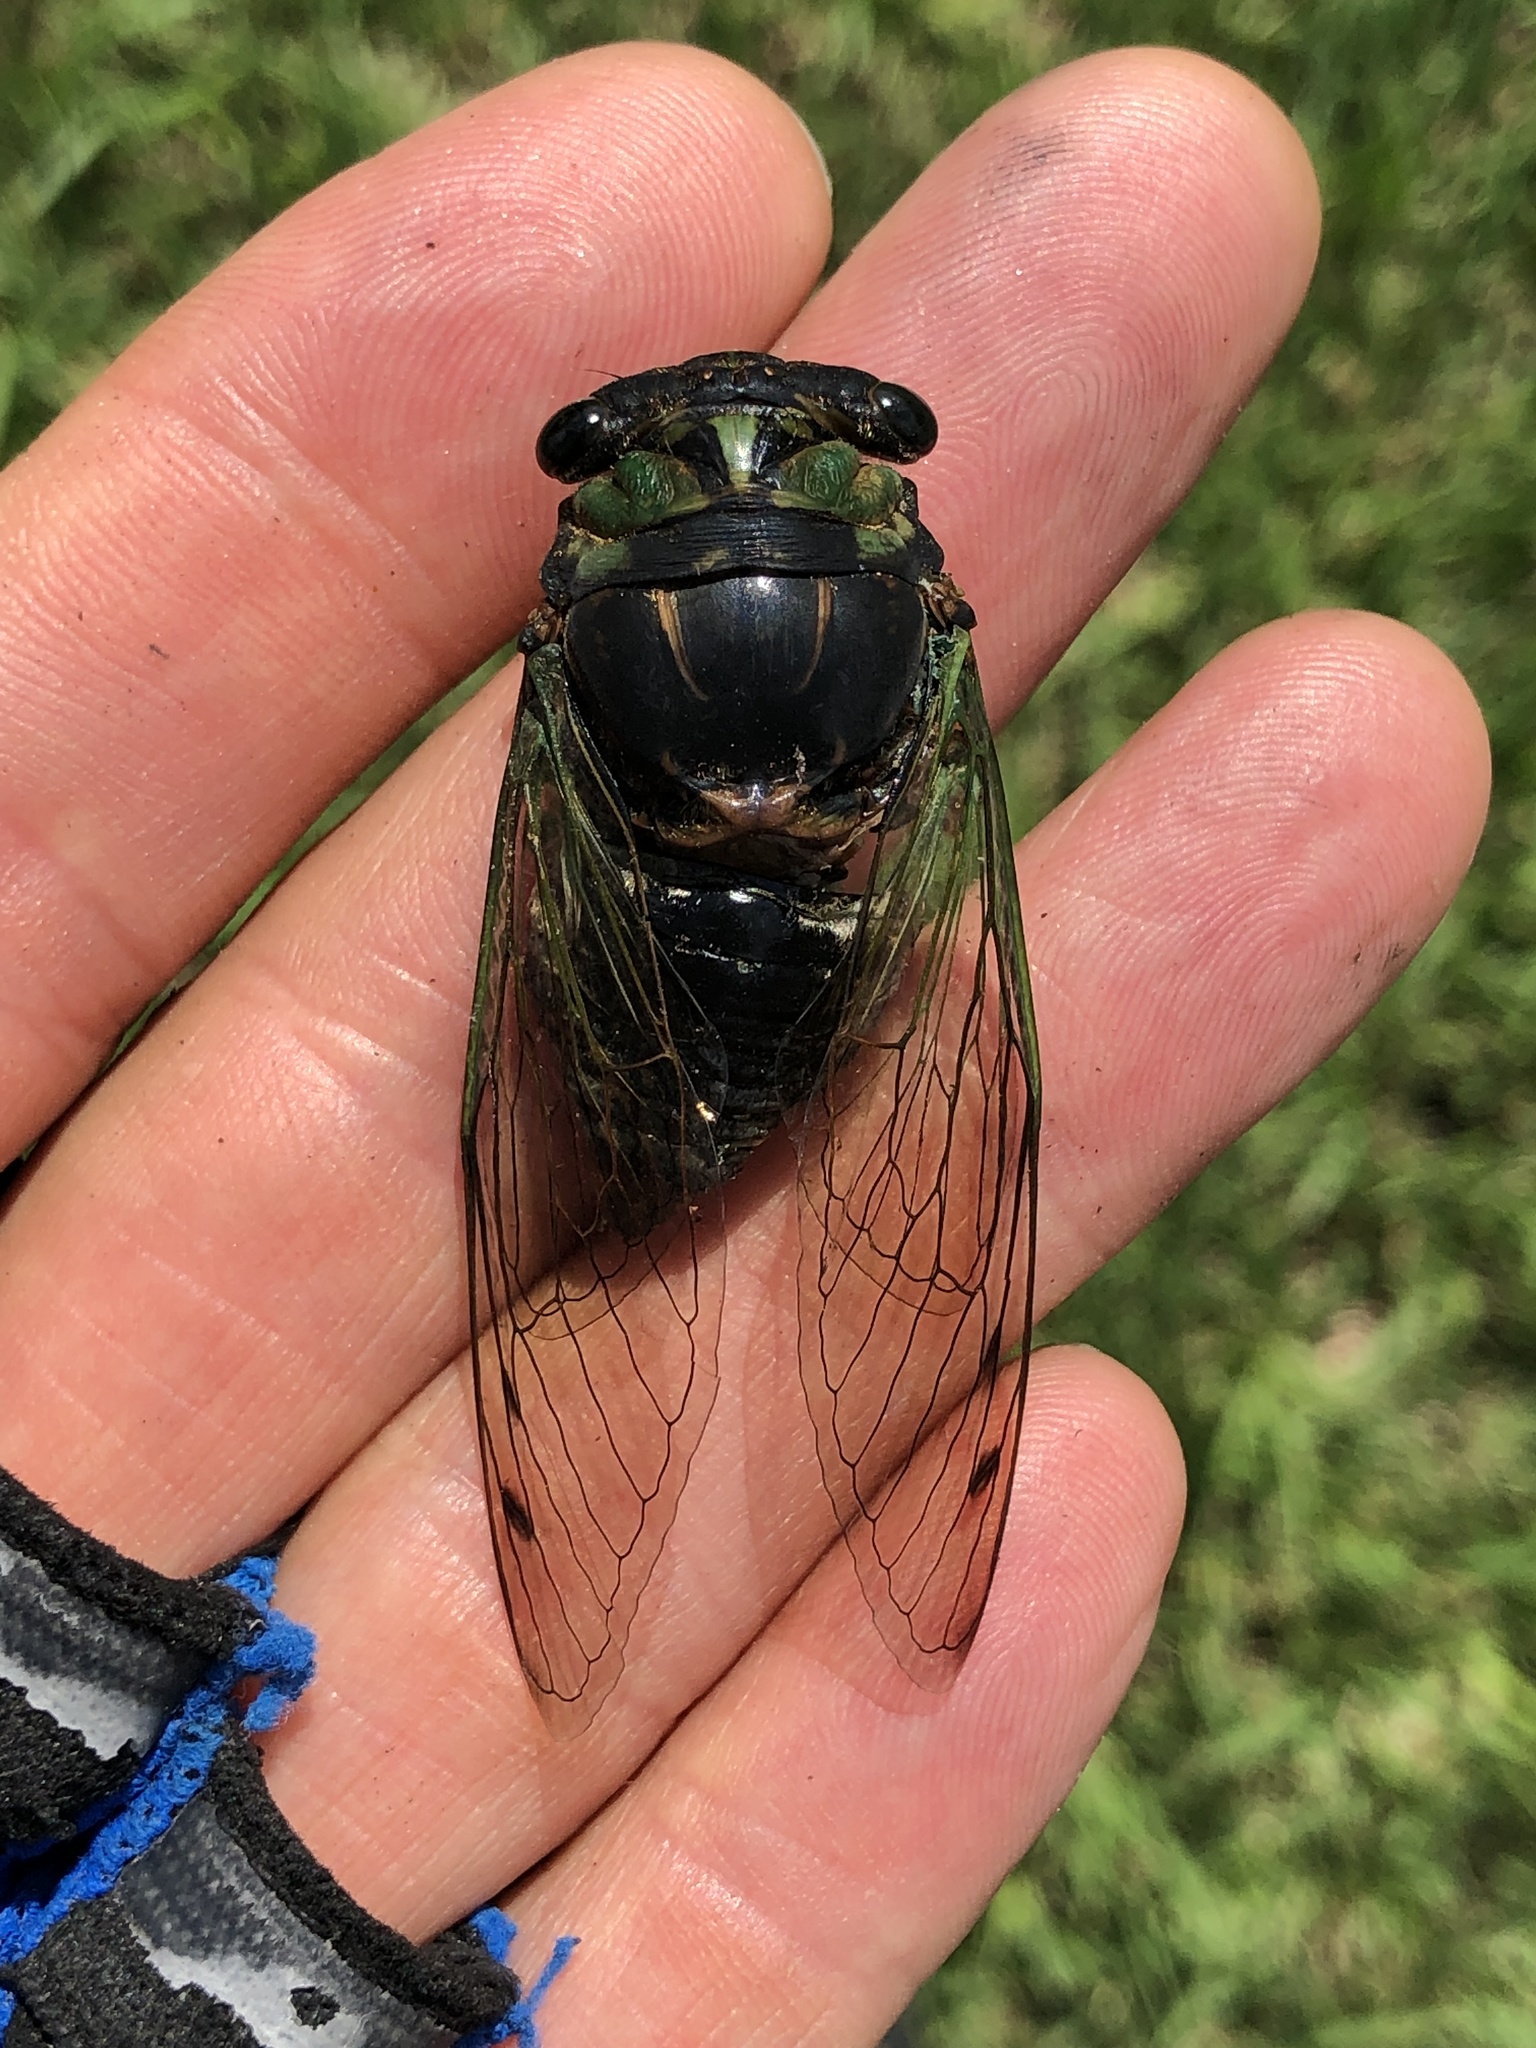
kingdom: Animalia
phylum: Arthropoda
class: Insecta
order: Hemiptera
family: Cicadidae
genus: Neotibicen
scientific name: Neotibicen tibicen
